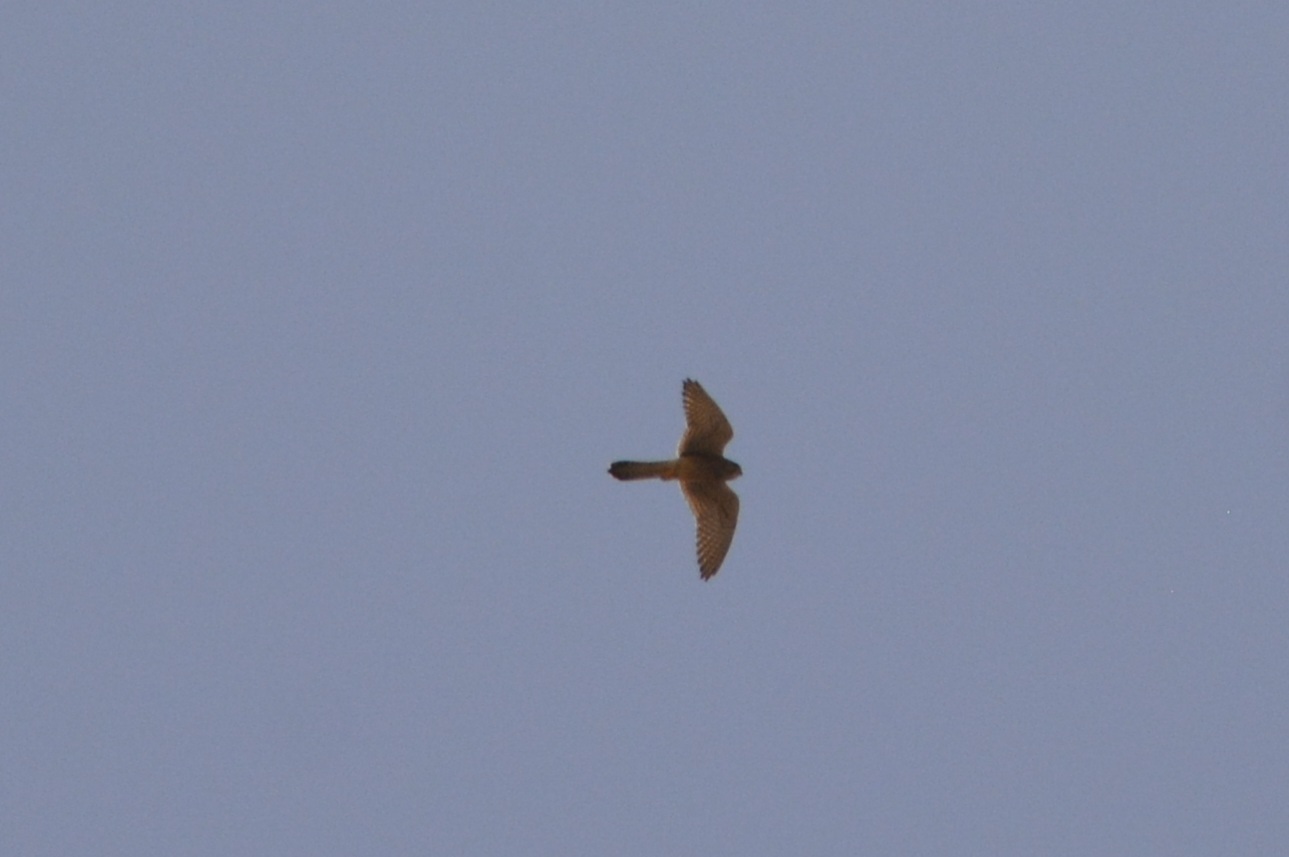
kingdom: Animalia
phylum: Chordata
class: Aves
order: Falconiformes
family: Falconidae
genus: Falco
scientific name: Falco tinnunculus
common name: Common kestrel
